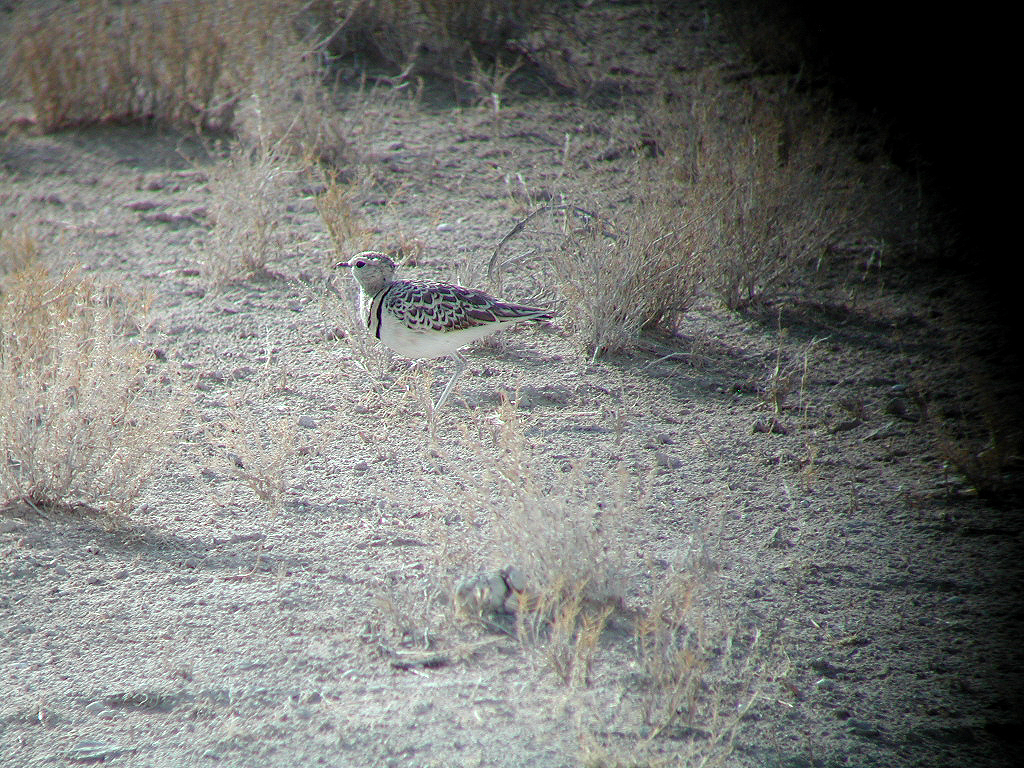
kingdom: Animalia
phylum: Chordata
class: Aves
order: Charadriiformes
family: Glareolidae
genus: Rhinoptilus
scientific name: Rhinoptilus africanus
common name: Double-banded courser
